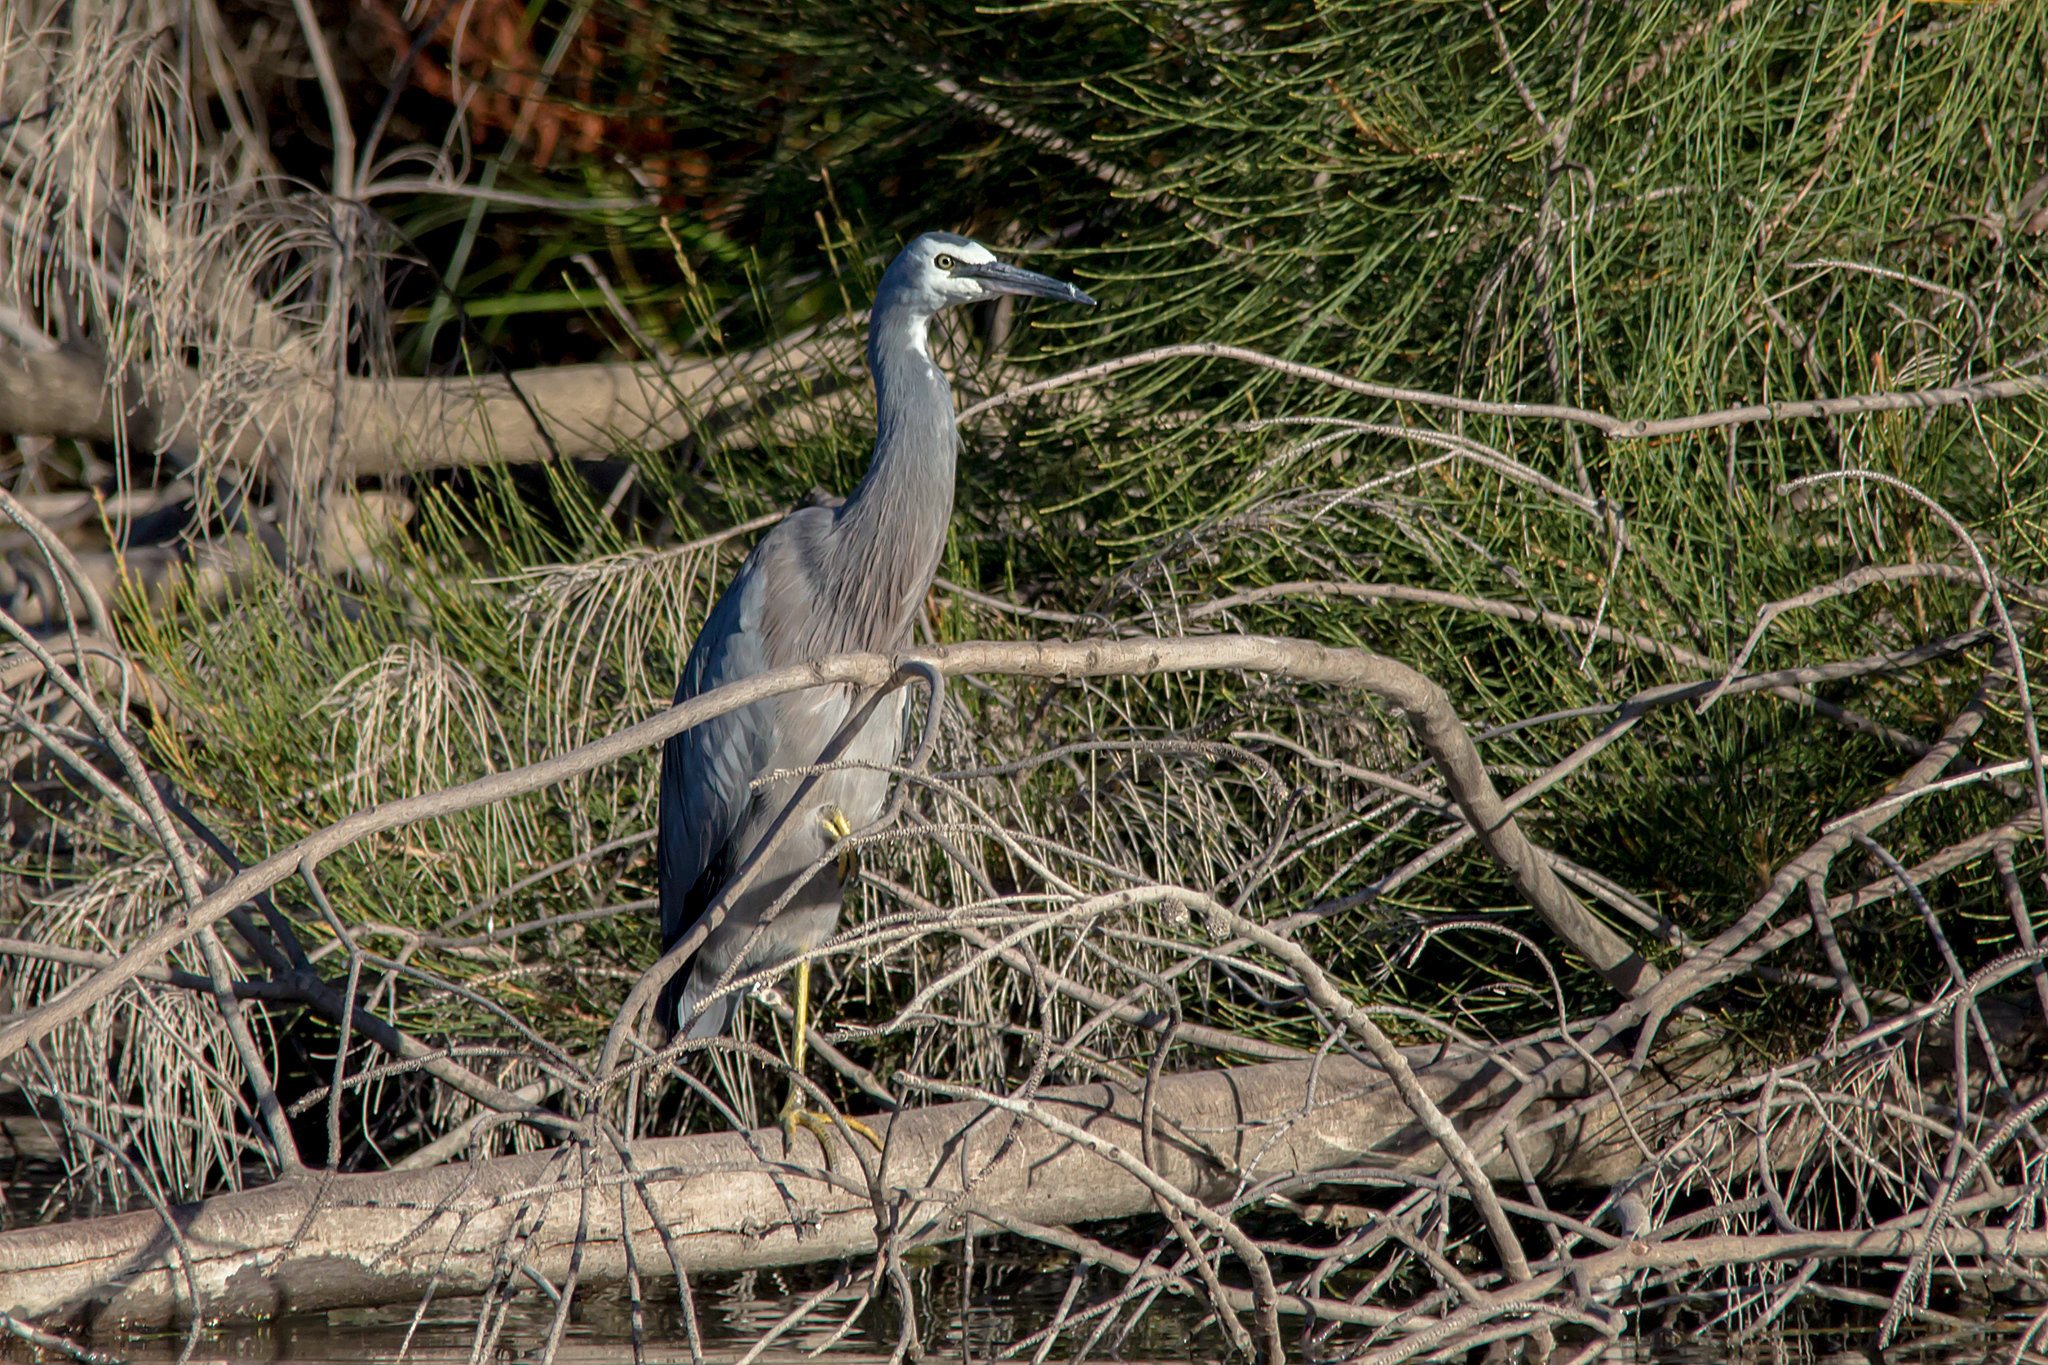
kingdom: Animalia
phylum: Chordata
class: Aves
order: Pelecaniformes
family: Ardeidae
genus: Egretta
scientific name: Egretta novaehollandiae
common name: White-faced heron
